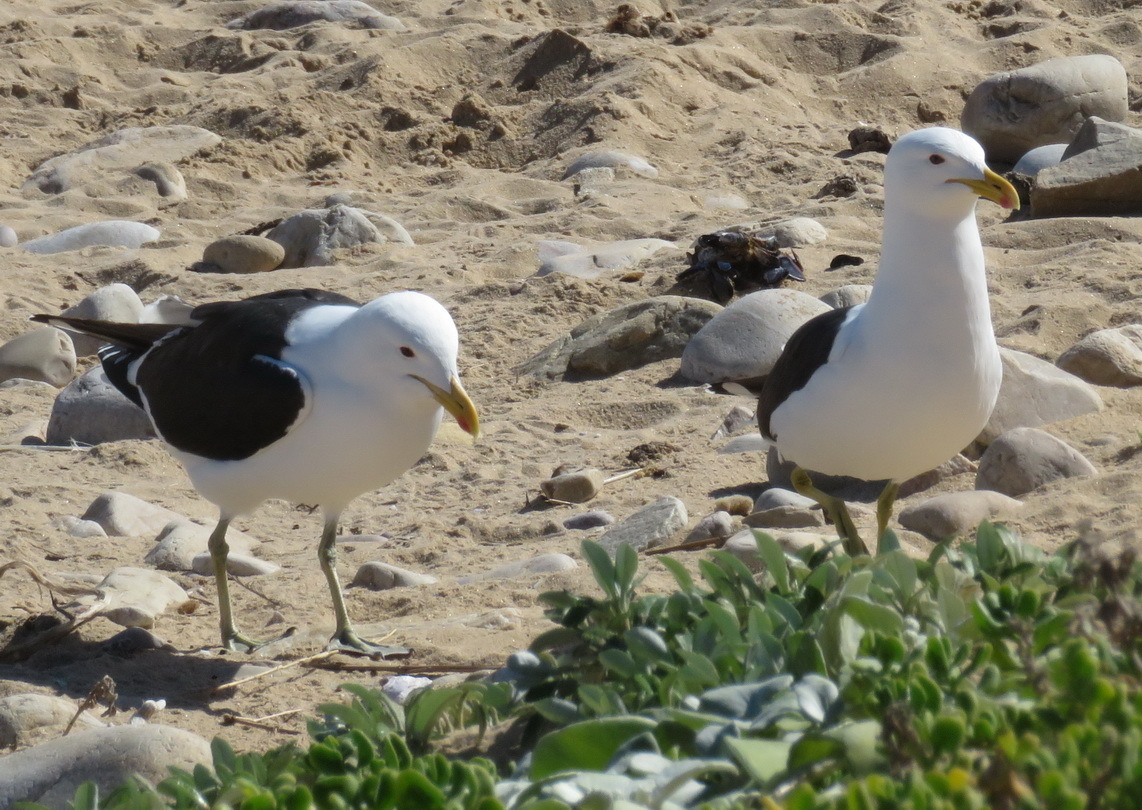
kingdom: Animalia
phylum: Chordata
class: Aves
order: Charadriiformes
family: Laridae
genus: Larus
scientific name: Larus dominicanus
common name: Kelp gull
